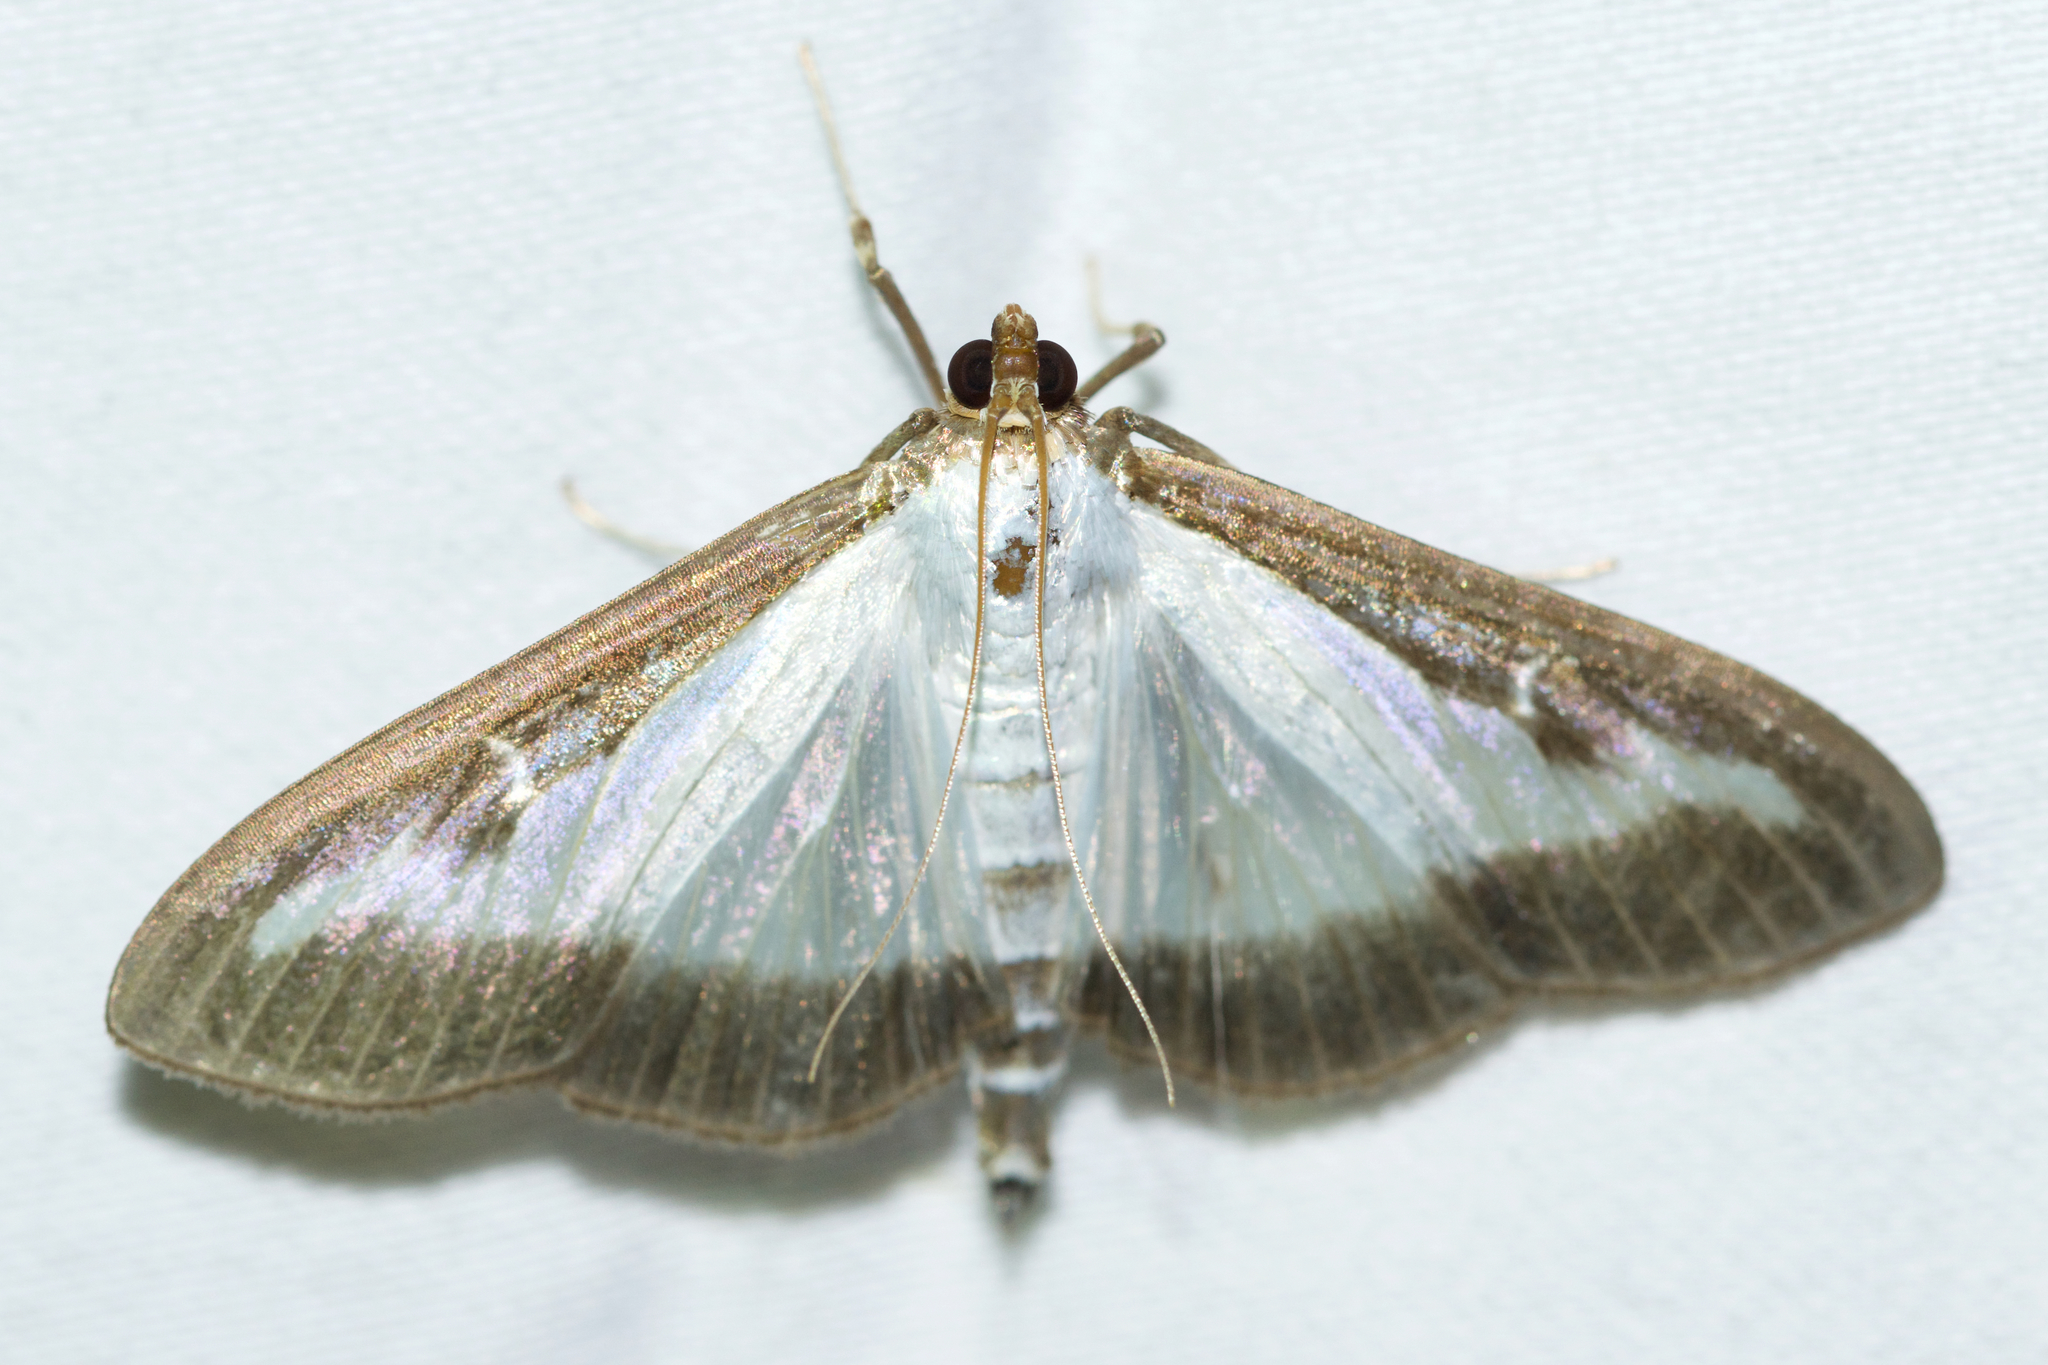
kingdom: Animalia
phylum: Arthropoda
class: Insecta
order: Lepidoptera
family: Crambidae
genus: Cydalima
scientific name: Cydalima perspectalis
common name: Box tree moth
